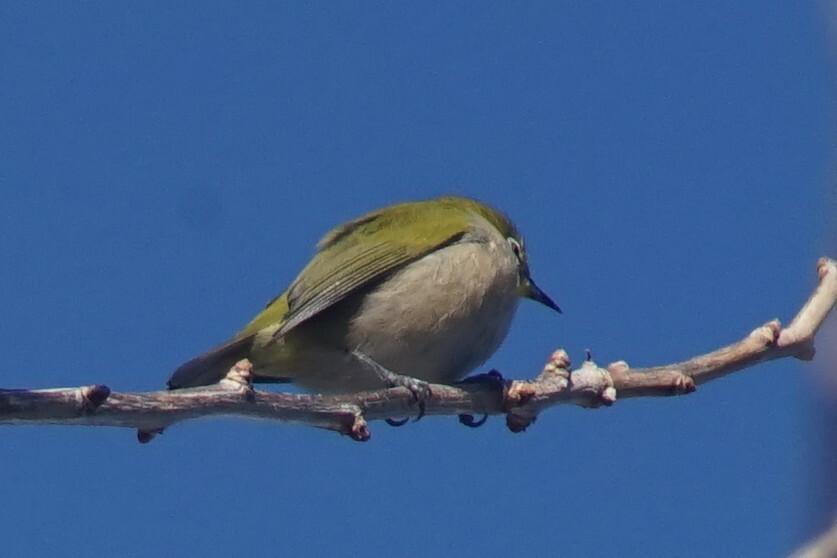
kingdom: Animalia
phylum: Chordata
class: Aves
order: Passeriformes
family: Zosteropidae
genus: Zosterops
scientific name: Zosterops japonicus
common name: Japanese white-eye
